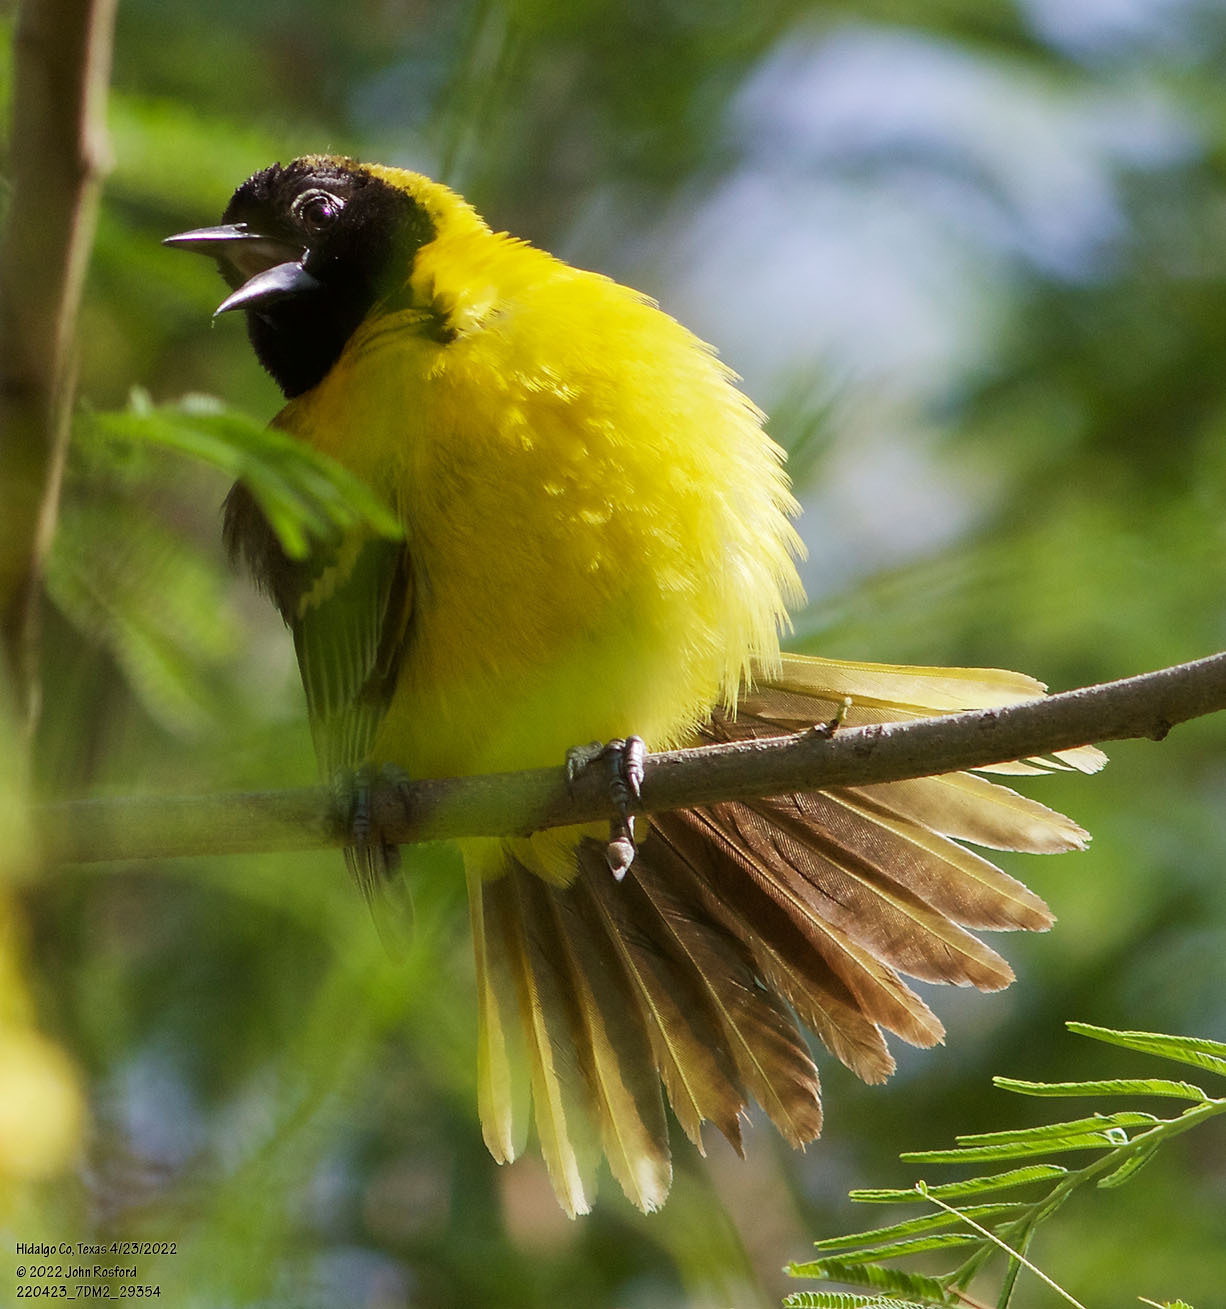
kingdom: Animalia
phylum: Chordata
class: Aves
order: Passeriformes
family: Icteridae
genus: Icterus
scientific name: Icterus graduacauda
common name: Audubon's oriole
